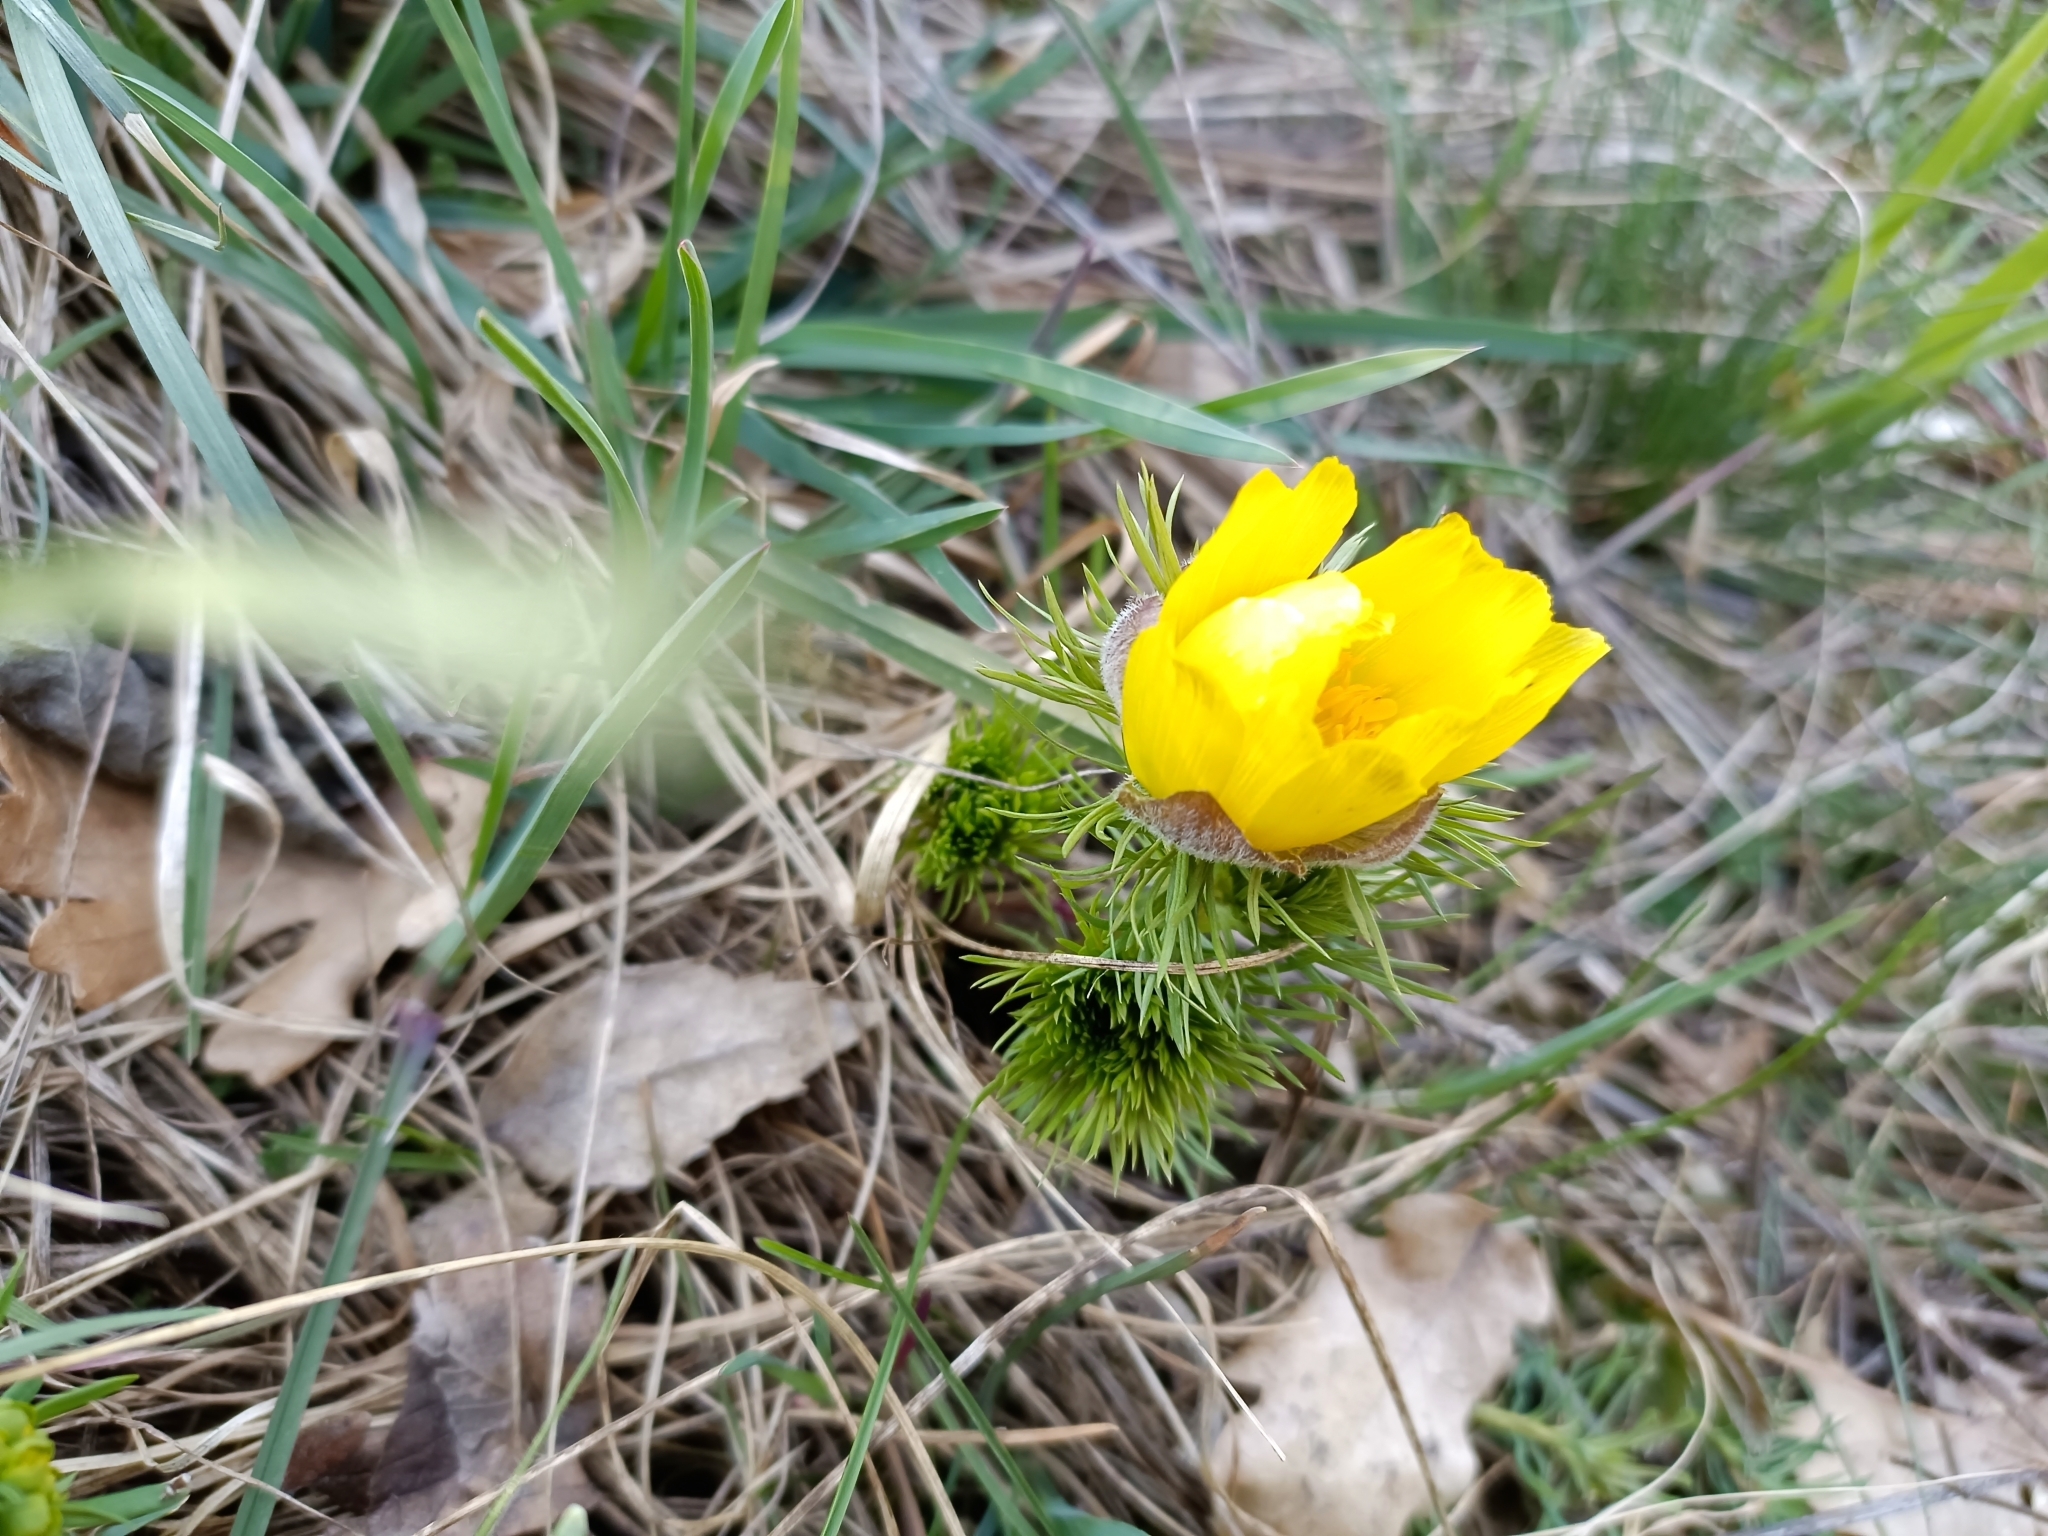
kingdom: Plantae
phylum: Tracheophyta
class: Magnoliopsida
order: Ranunculales
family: Ranunculaceae
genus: Adonis
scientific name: Adonis vernalis
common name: Yellow pheasants-eye
